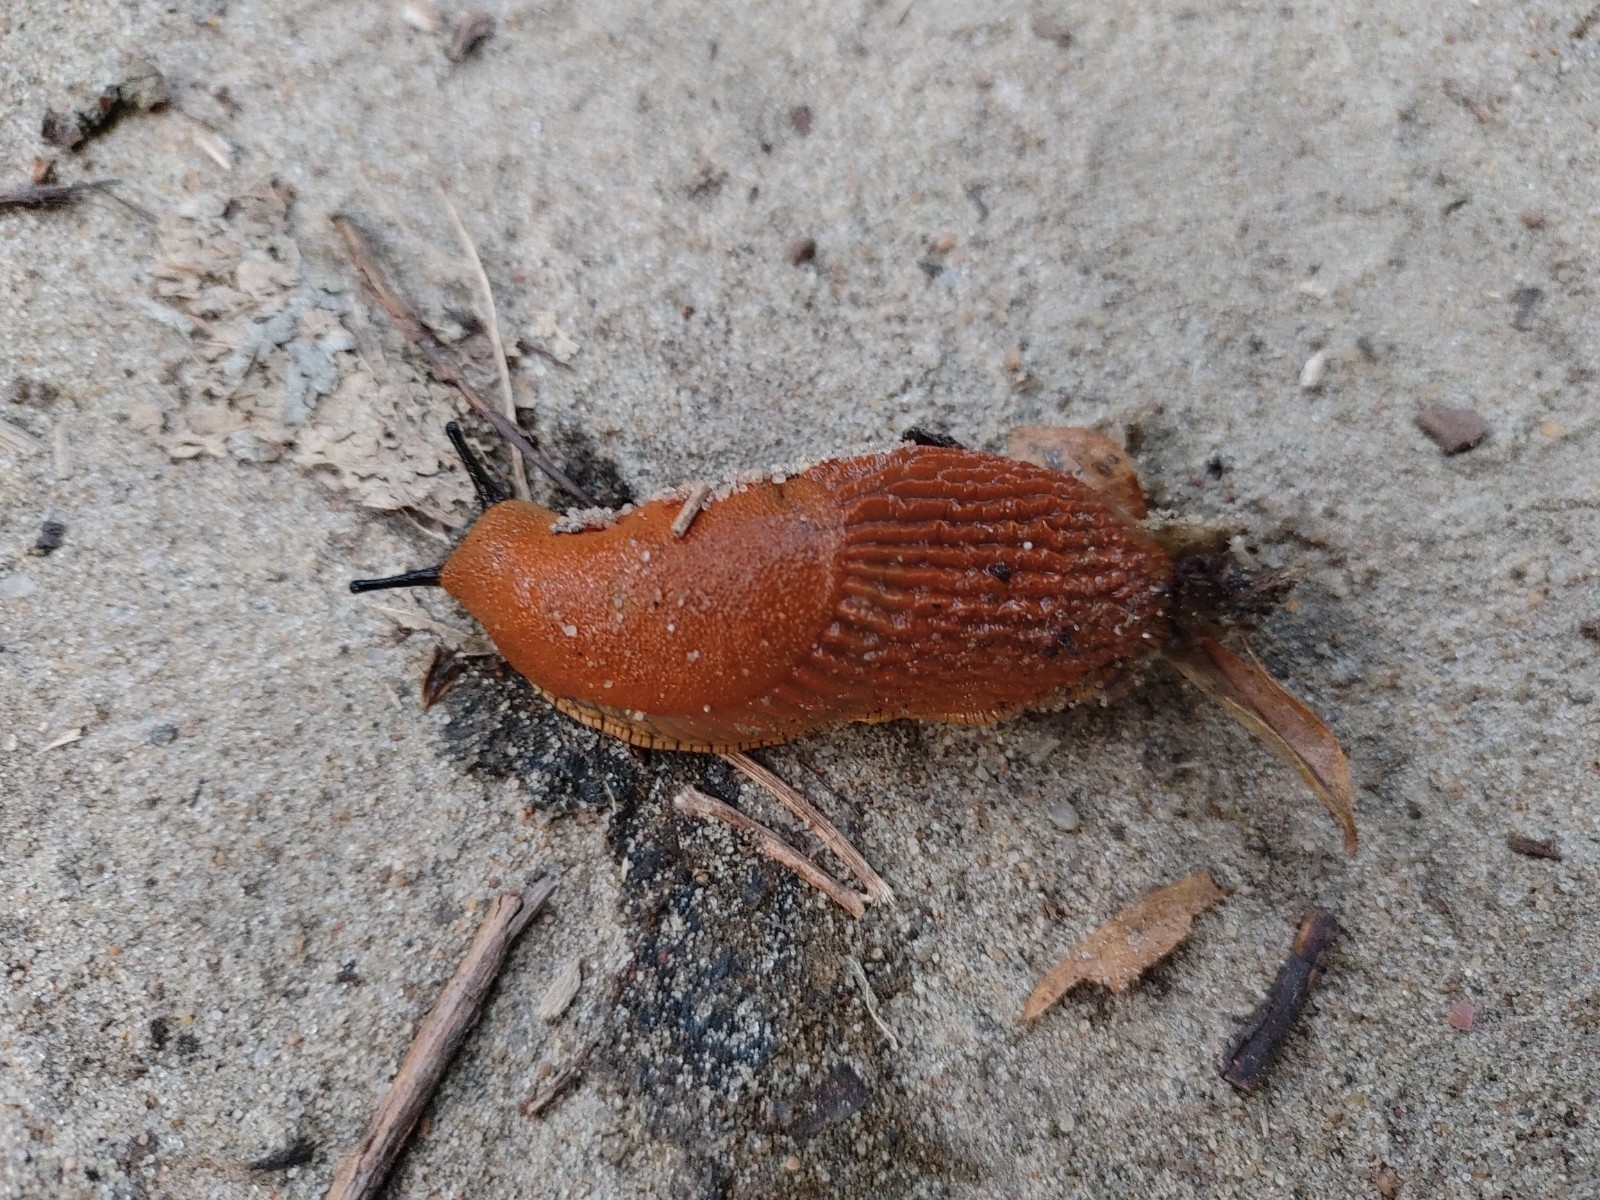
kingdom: Animalia
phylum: Mollusca
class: Gastropoda
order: Stylommatophora
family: Arionidae
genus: Arion
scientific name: Arion vulgaris
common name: Lusitanian slug
